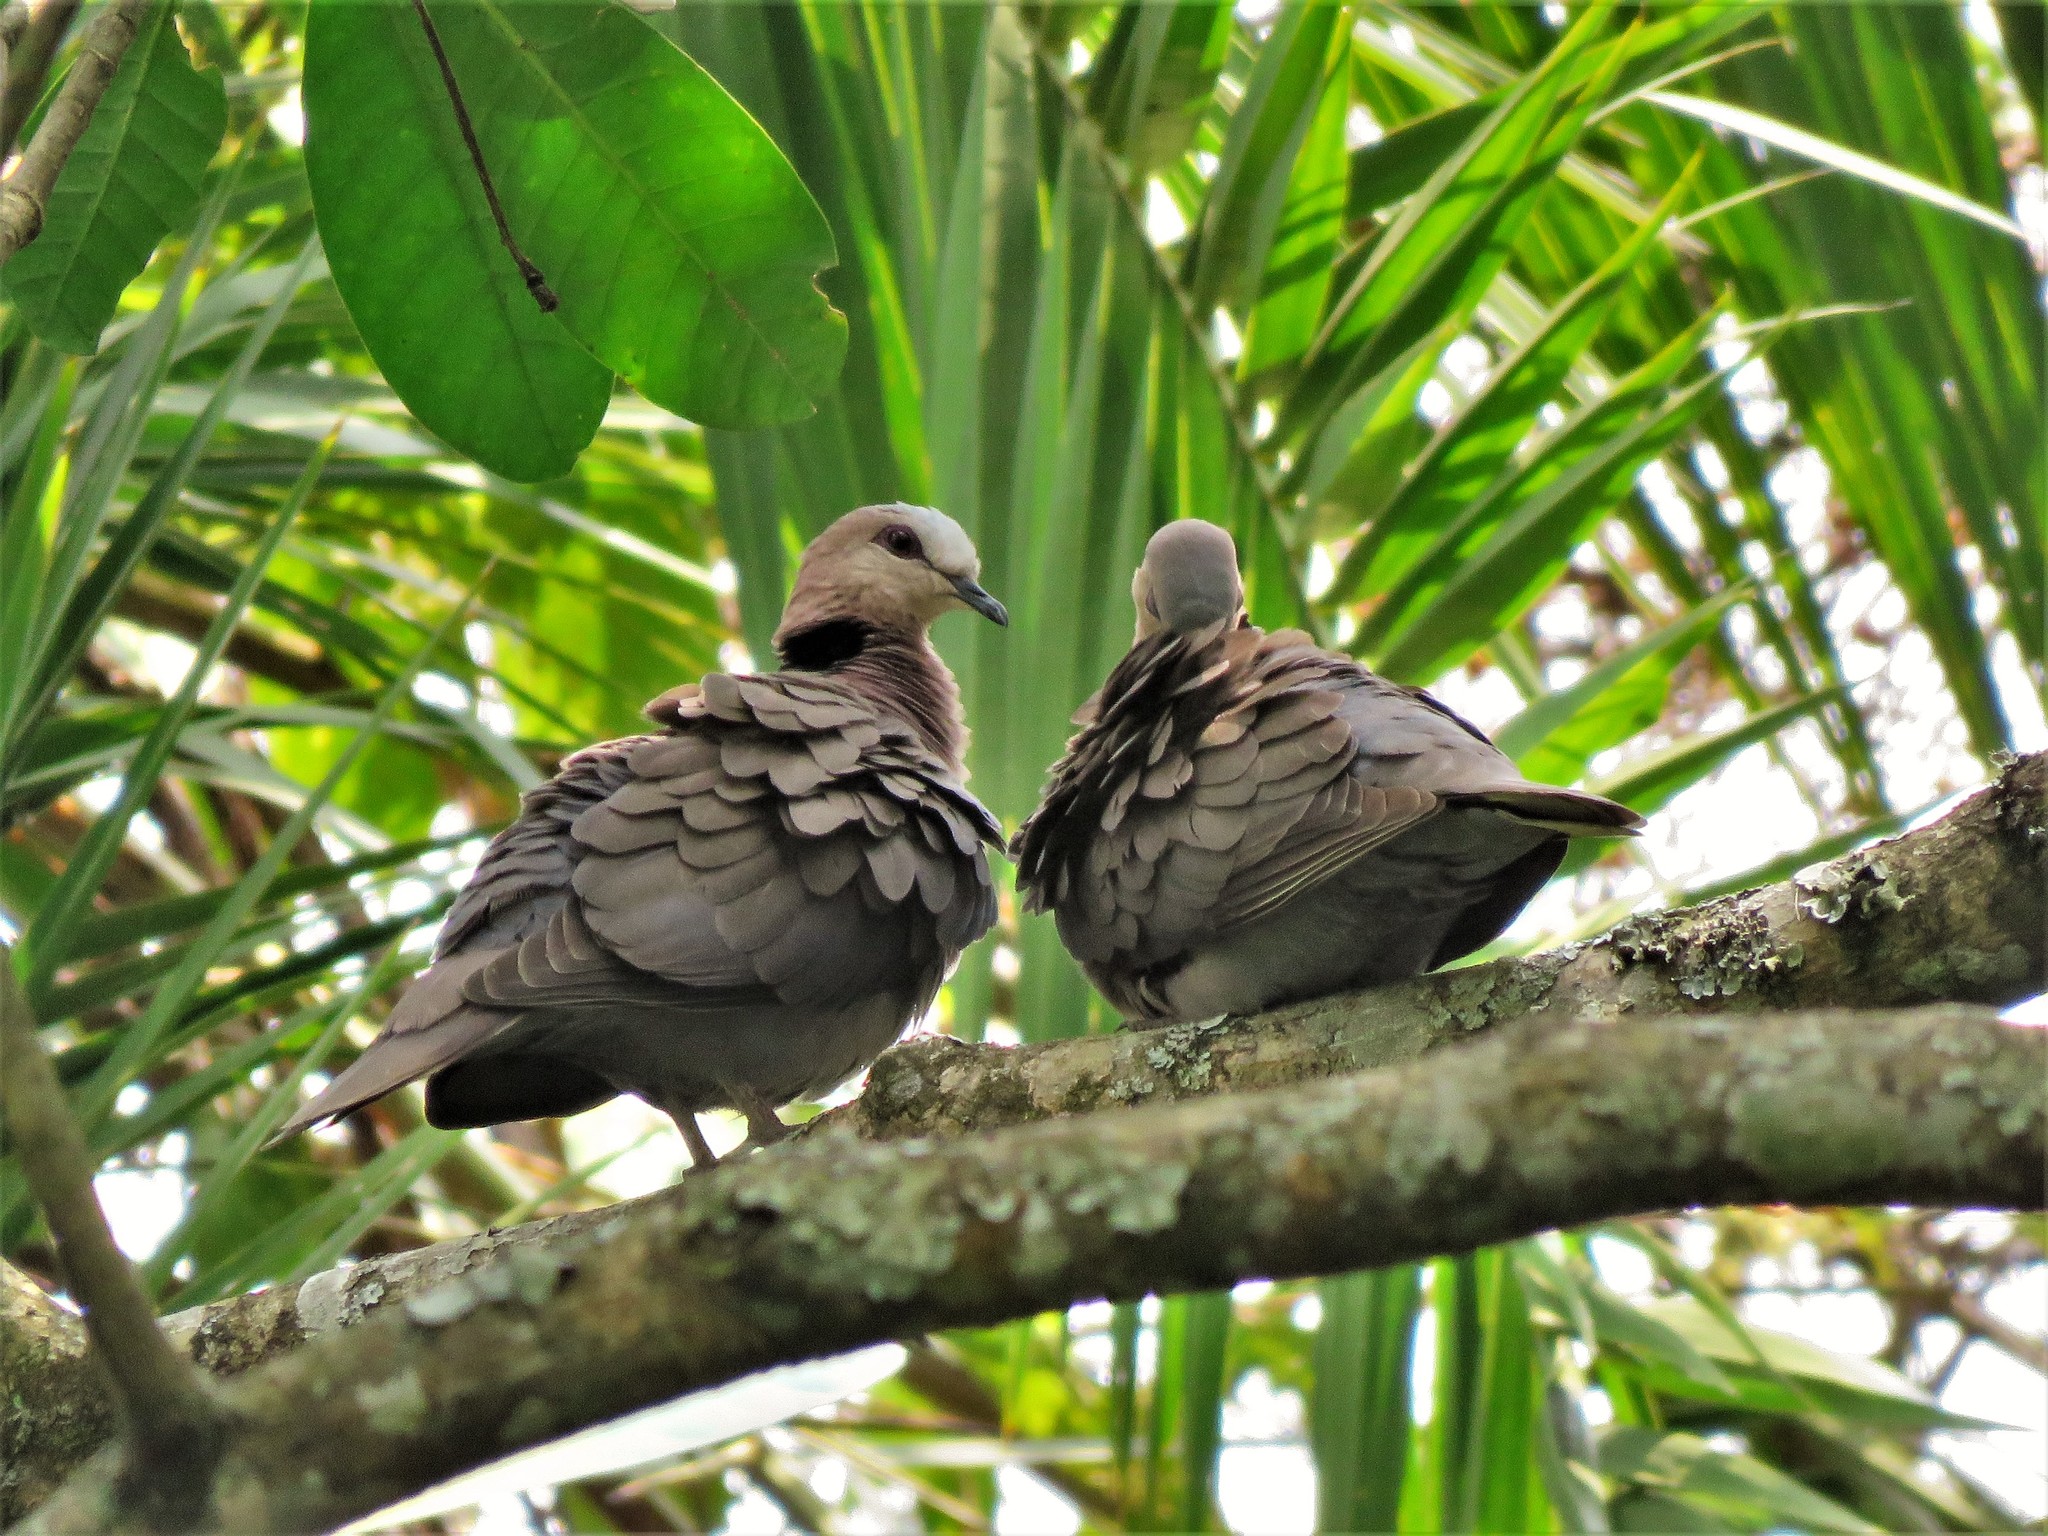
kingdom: Animalia
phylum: Chordata
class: Aves
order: Columbiformes
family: Columbidae
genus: Streptopelia
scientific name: Streptopelia semitorquata
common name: Red-eyed dove
